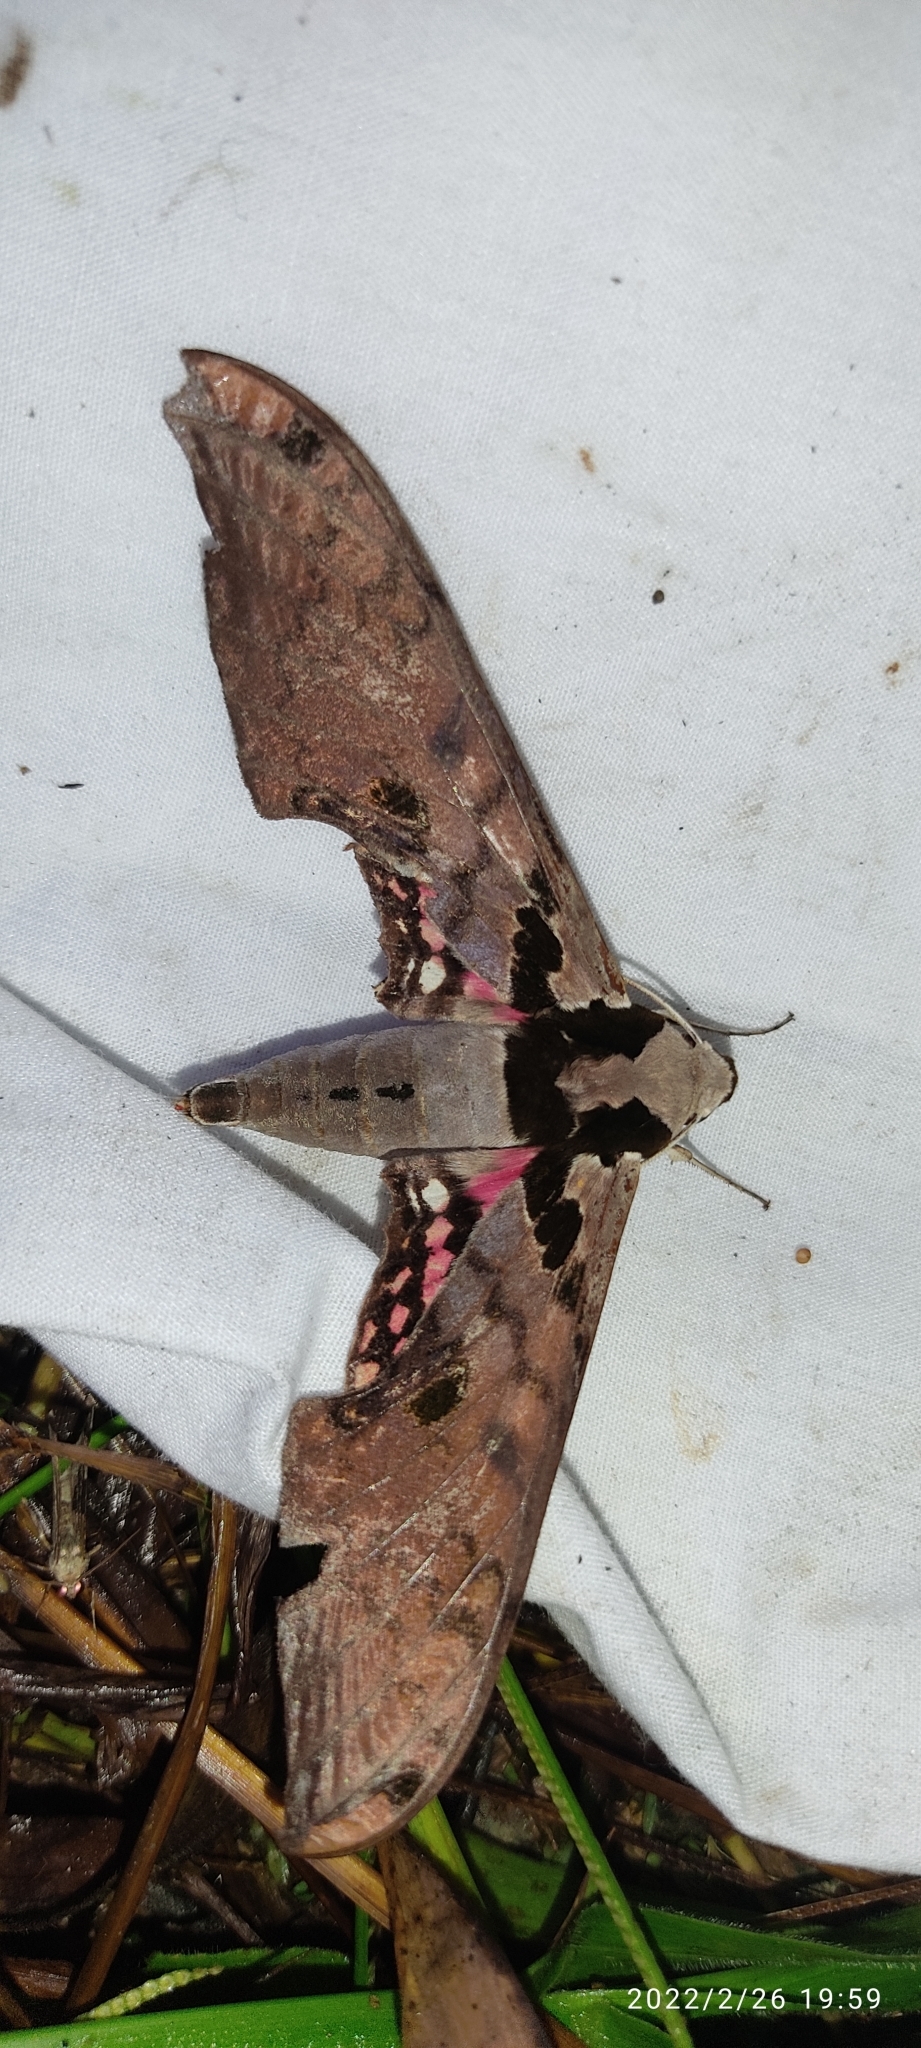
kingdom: Animalia
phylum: Arthropoda
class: Insecta
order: Lepidoptera
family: Sphingidae
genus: Adhemarius
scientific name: Adhemarius daphne
